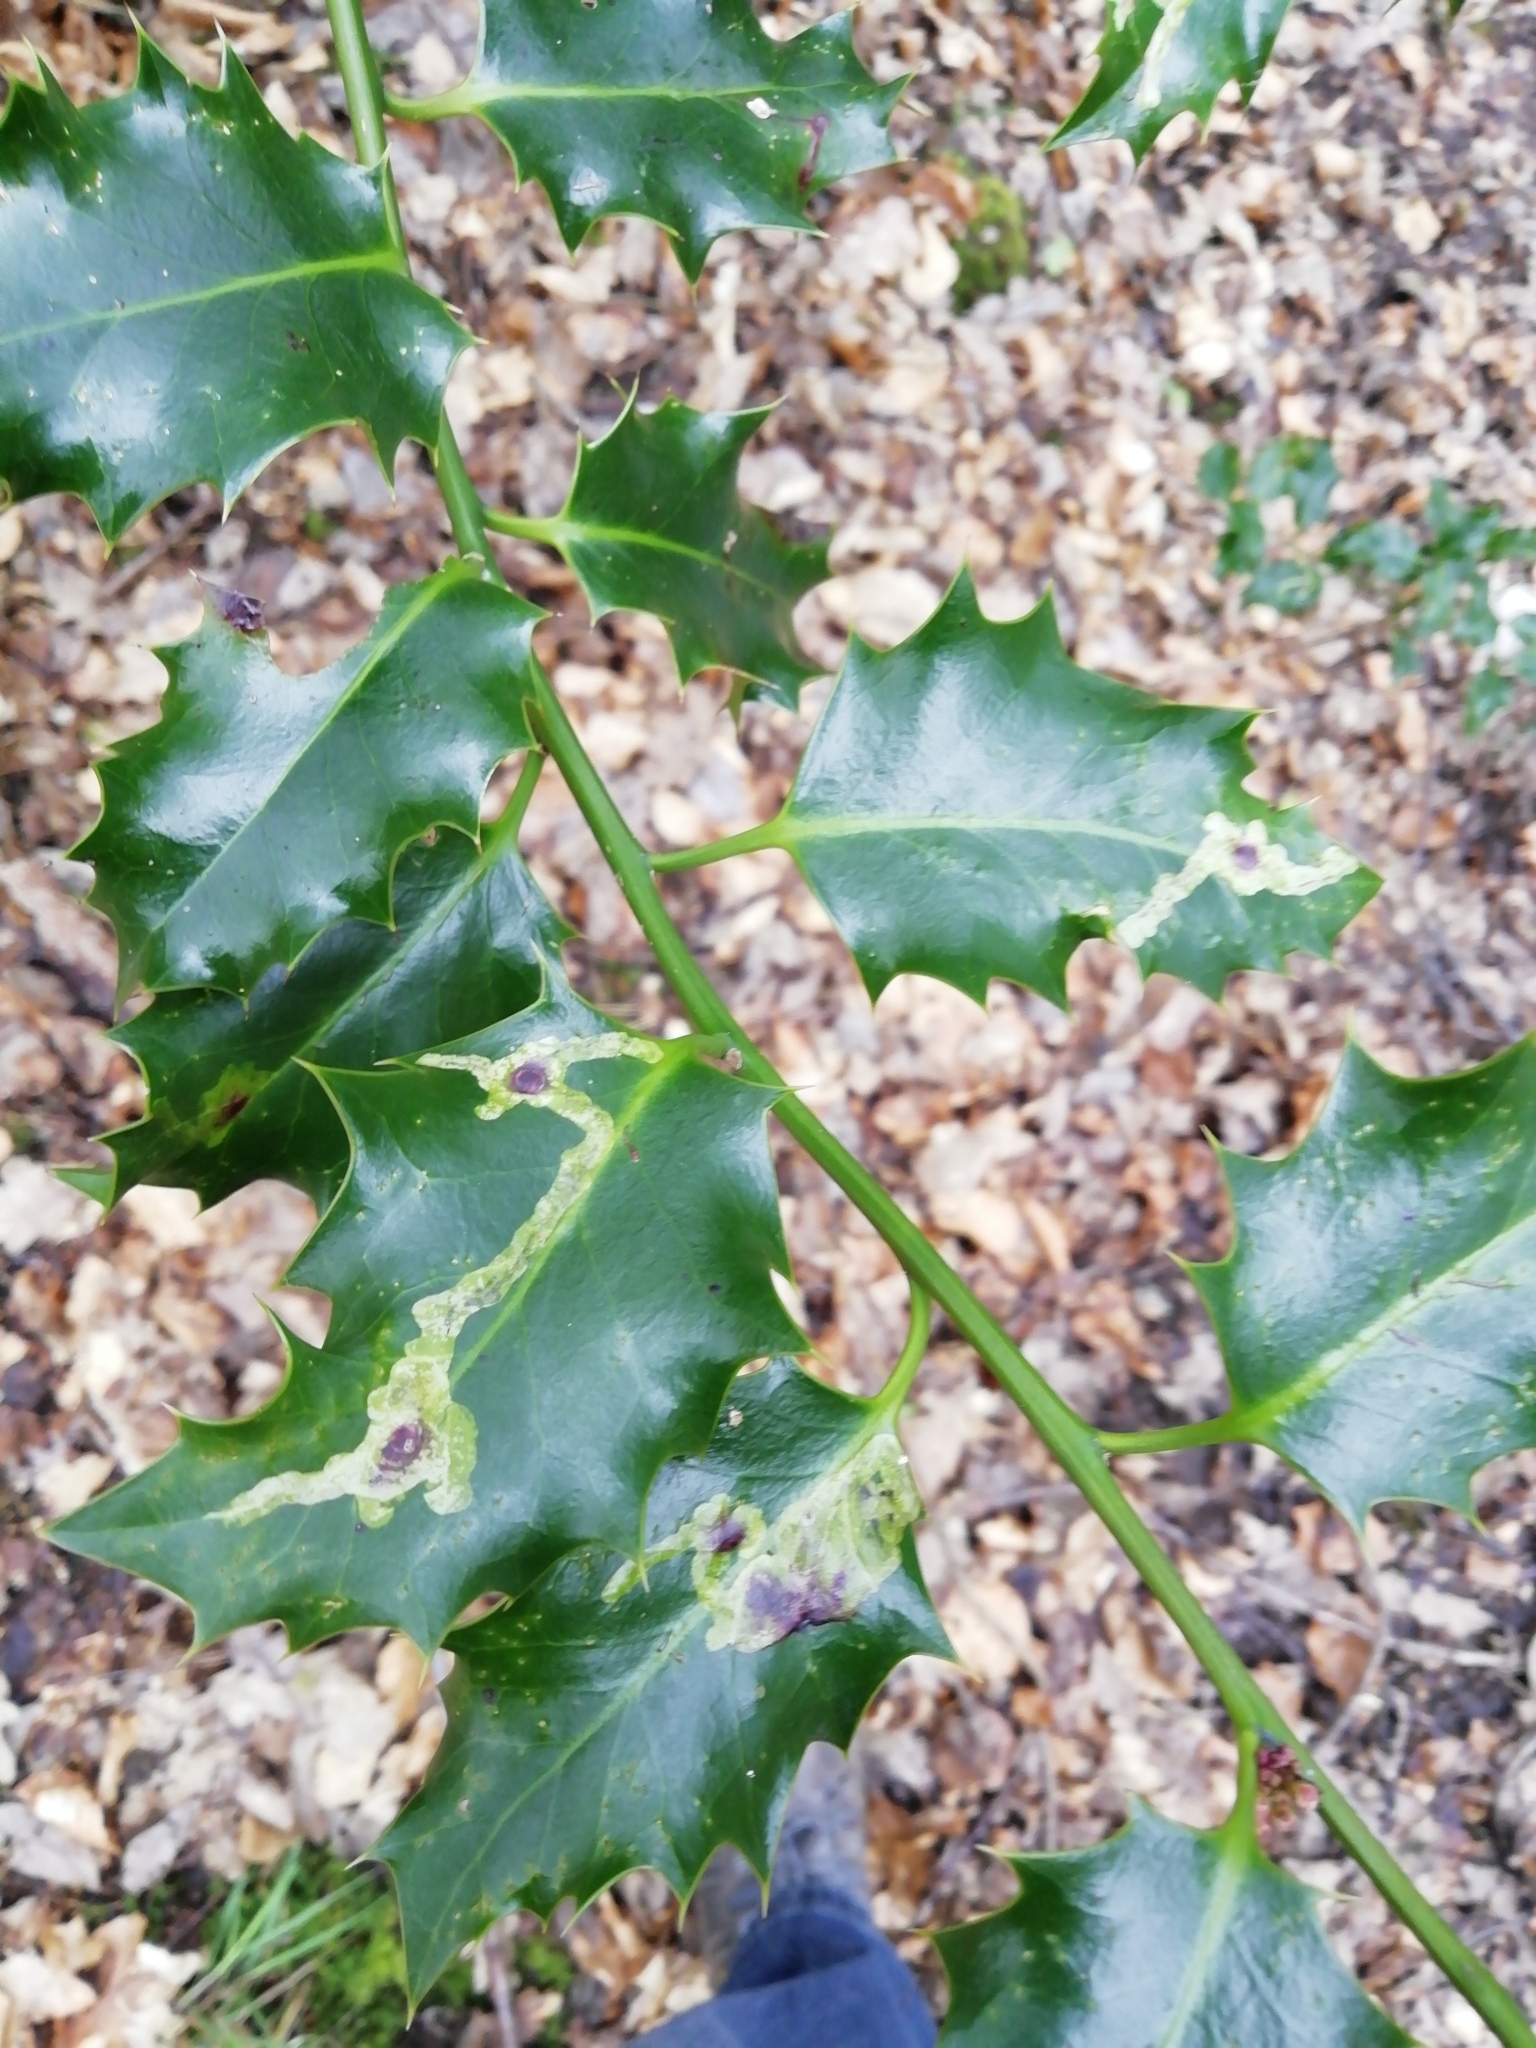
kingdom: Animalia
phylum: Arthropoda
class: Insecta
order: Diptera
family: Agromyzidae
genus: Phytomyza
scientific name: Phytomyza ilicis
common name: Holly leafminer
